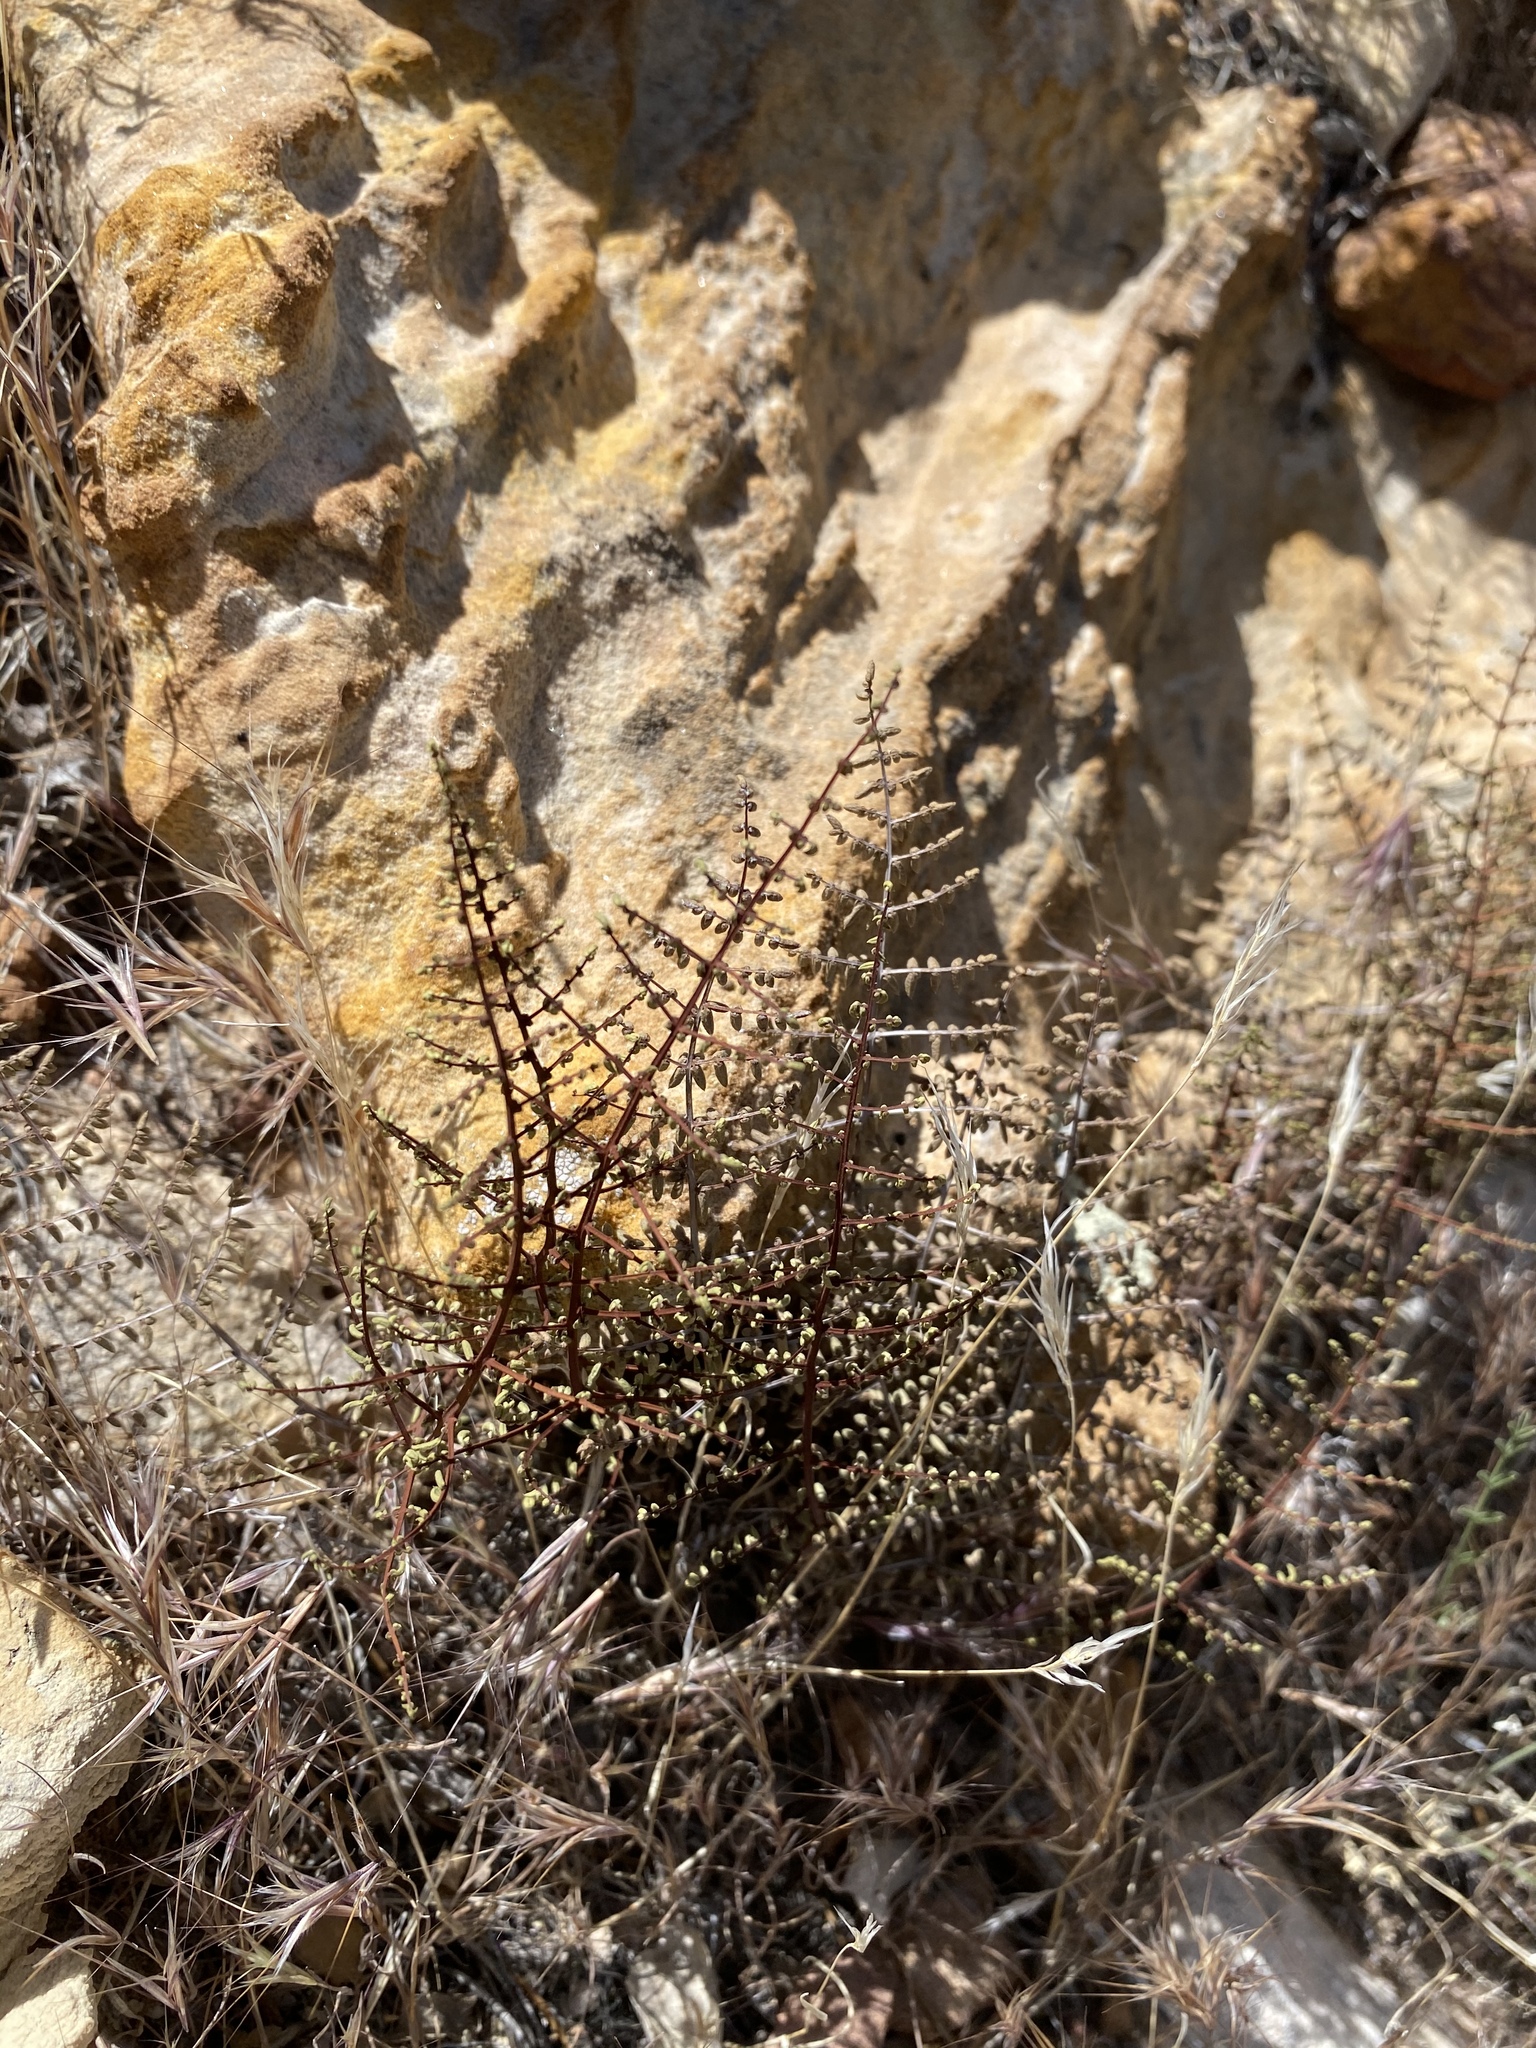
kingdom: Plantae
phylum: Tracheophyta
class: Polypodiopsida
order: Polypodiales
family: Pteridaceae
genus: Pellaea
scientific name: Pellaea mucronata
